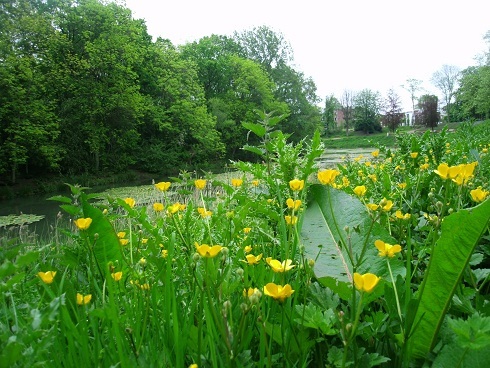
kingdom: Plantae
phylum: Tracheophyta
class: Magnoliopsida
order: Ranunculales
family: Ranunculaceae
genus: Ranunculus
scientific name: Ranunculus repens
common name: Creeping buttercup
